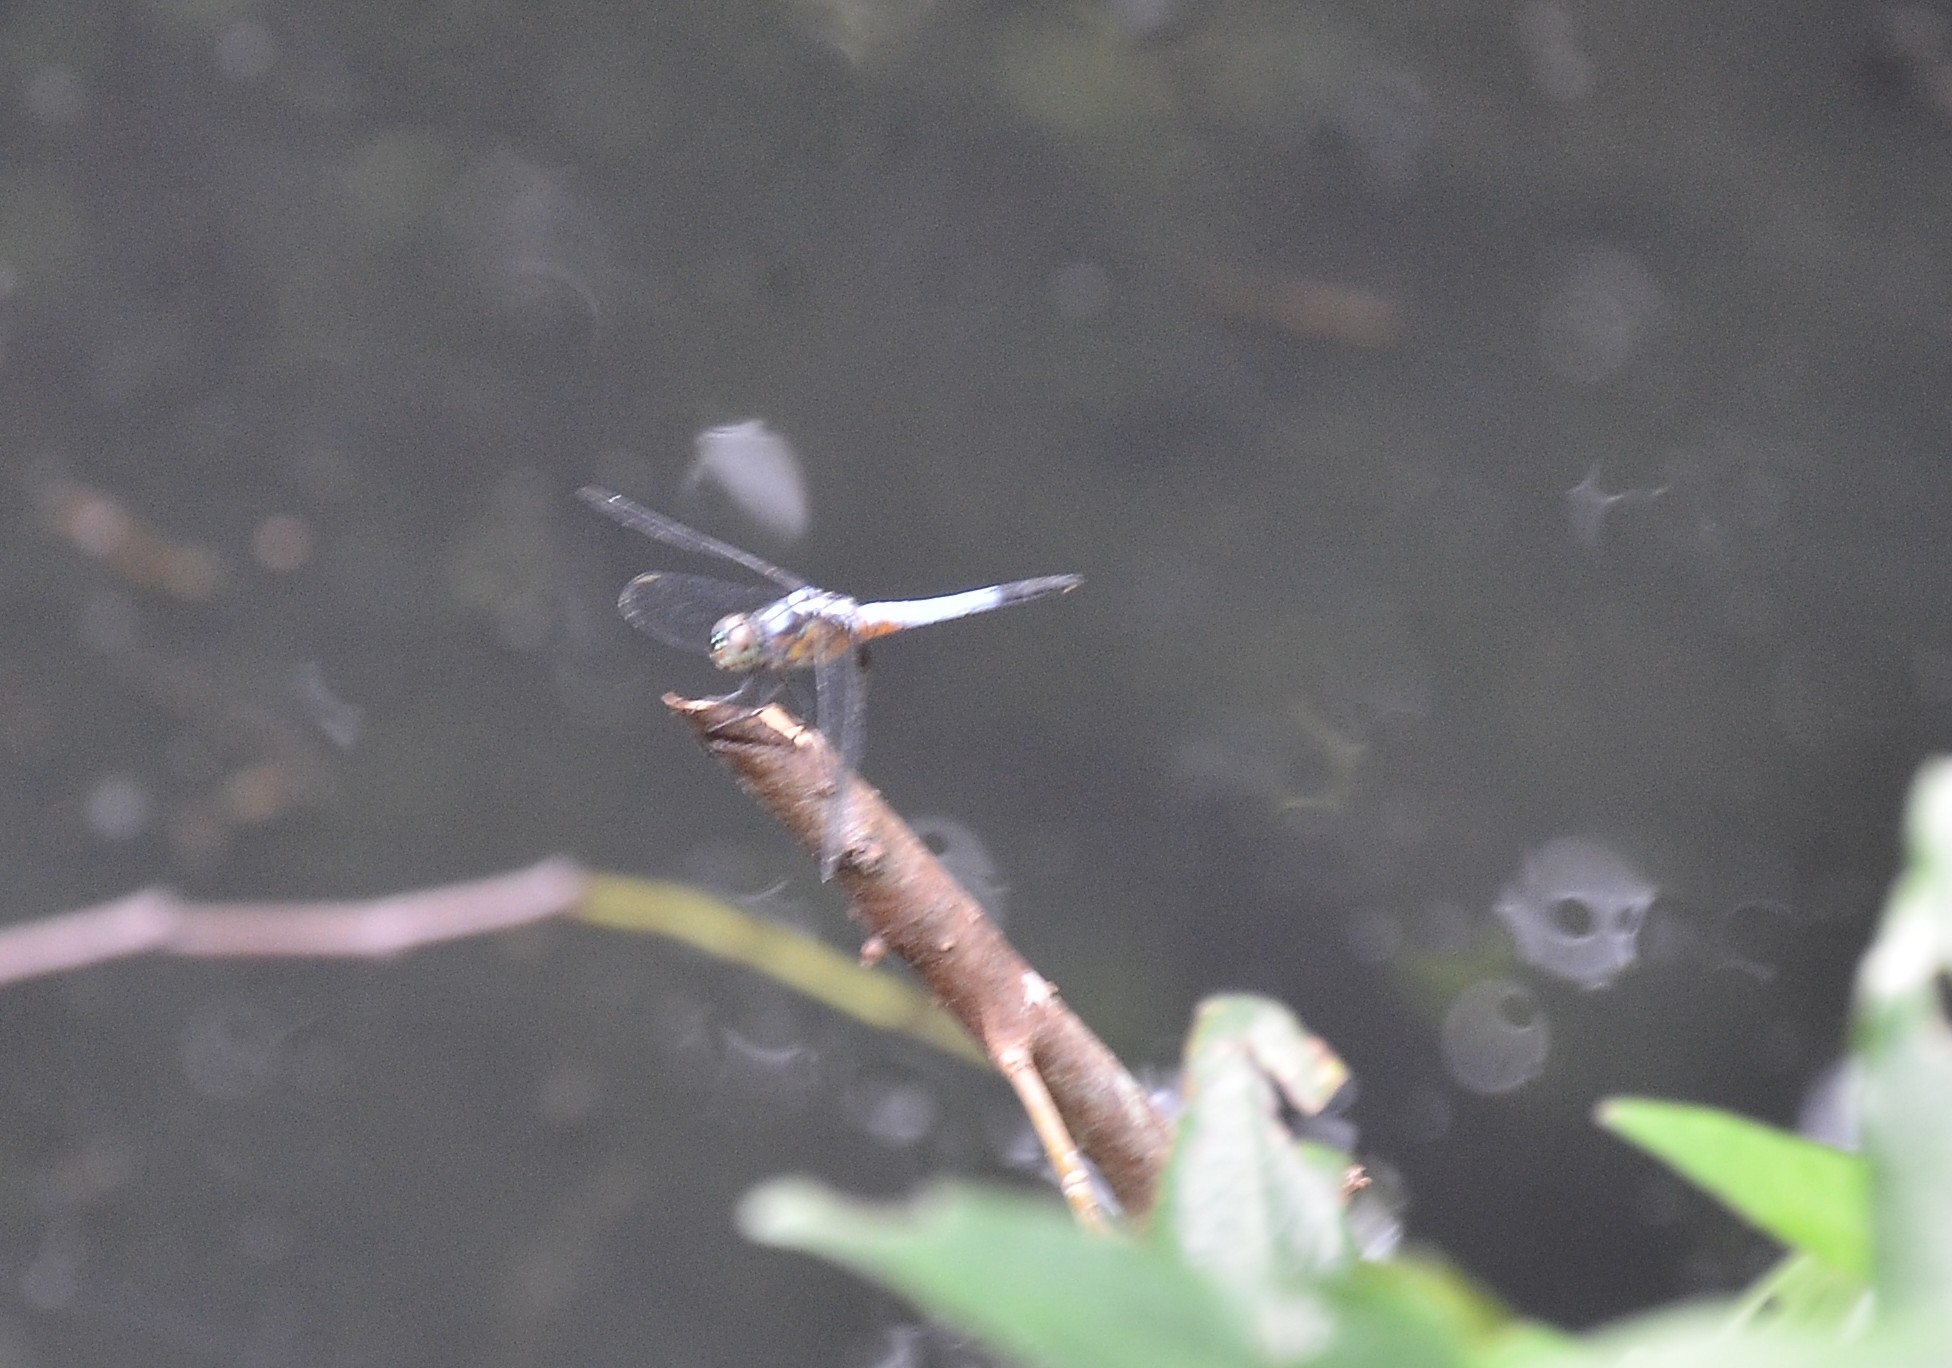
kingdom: Animalia
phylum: Arthropoda
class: Insecta
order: Odonata
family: Libellulidae
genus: Brachydiplax
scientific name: Brachydiplax chalybea
